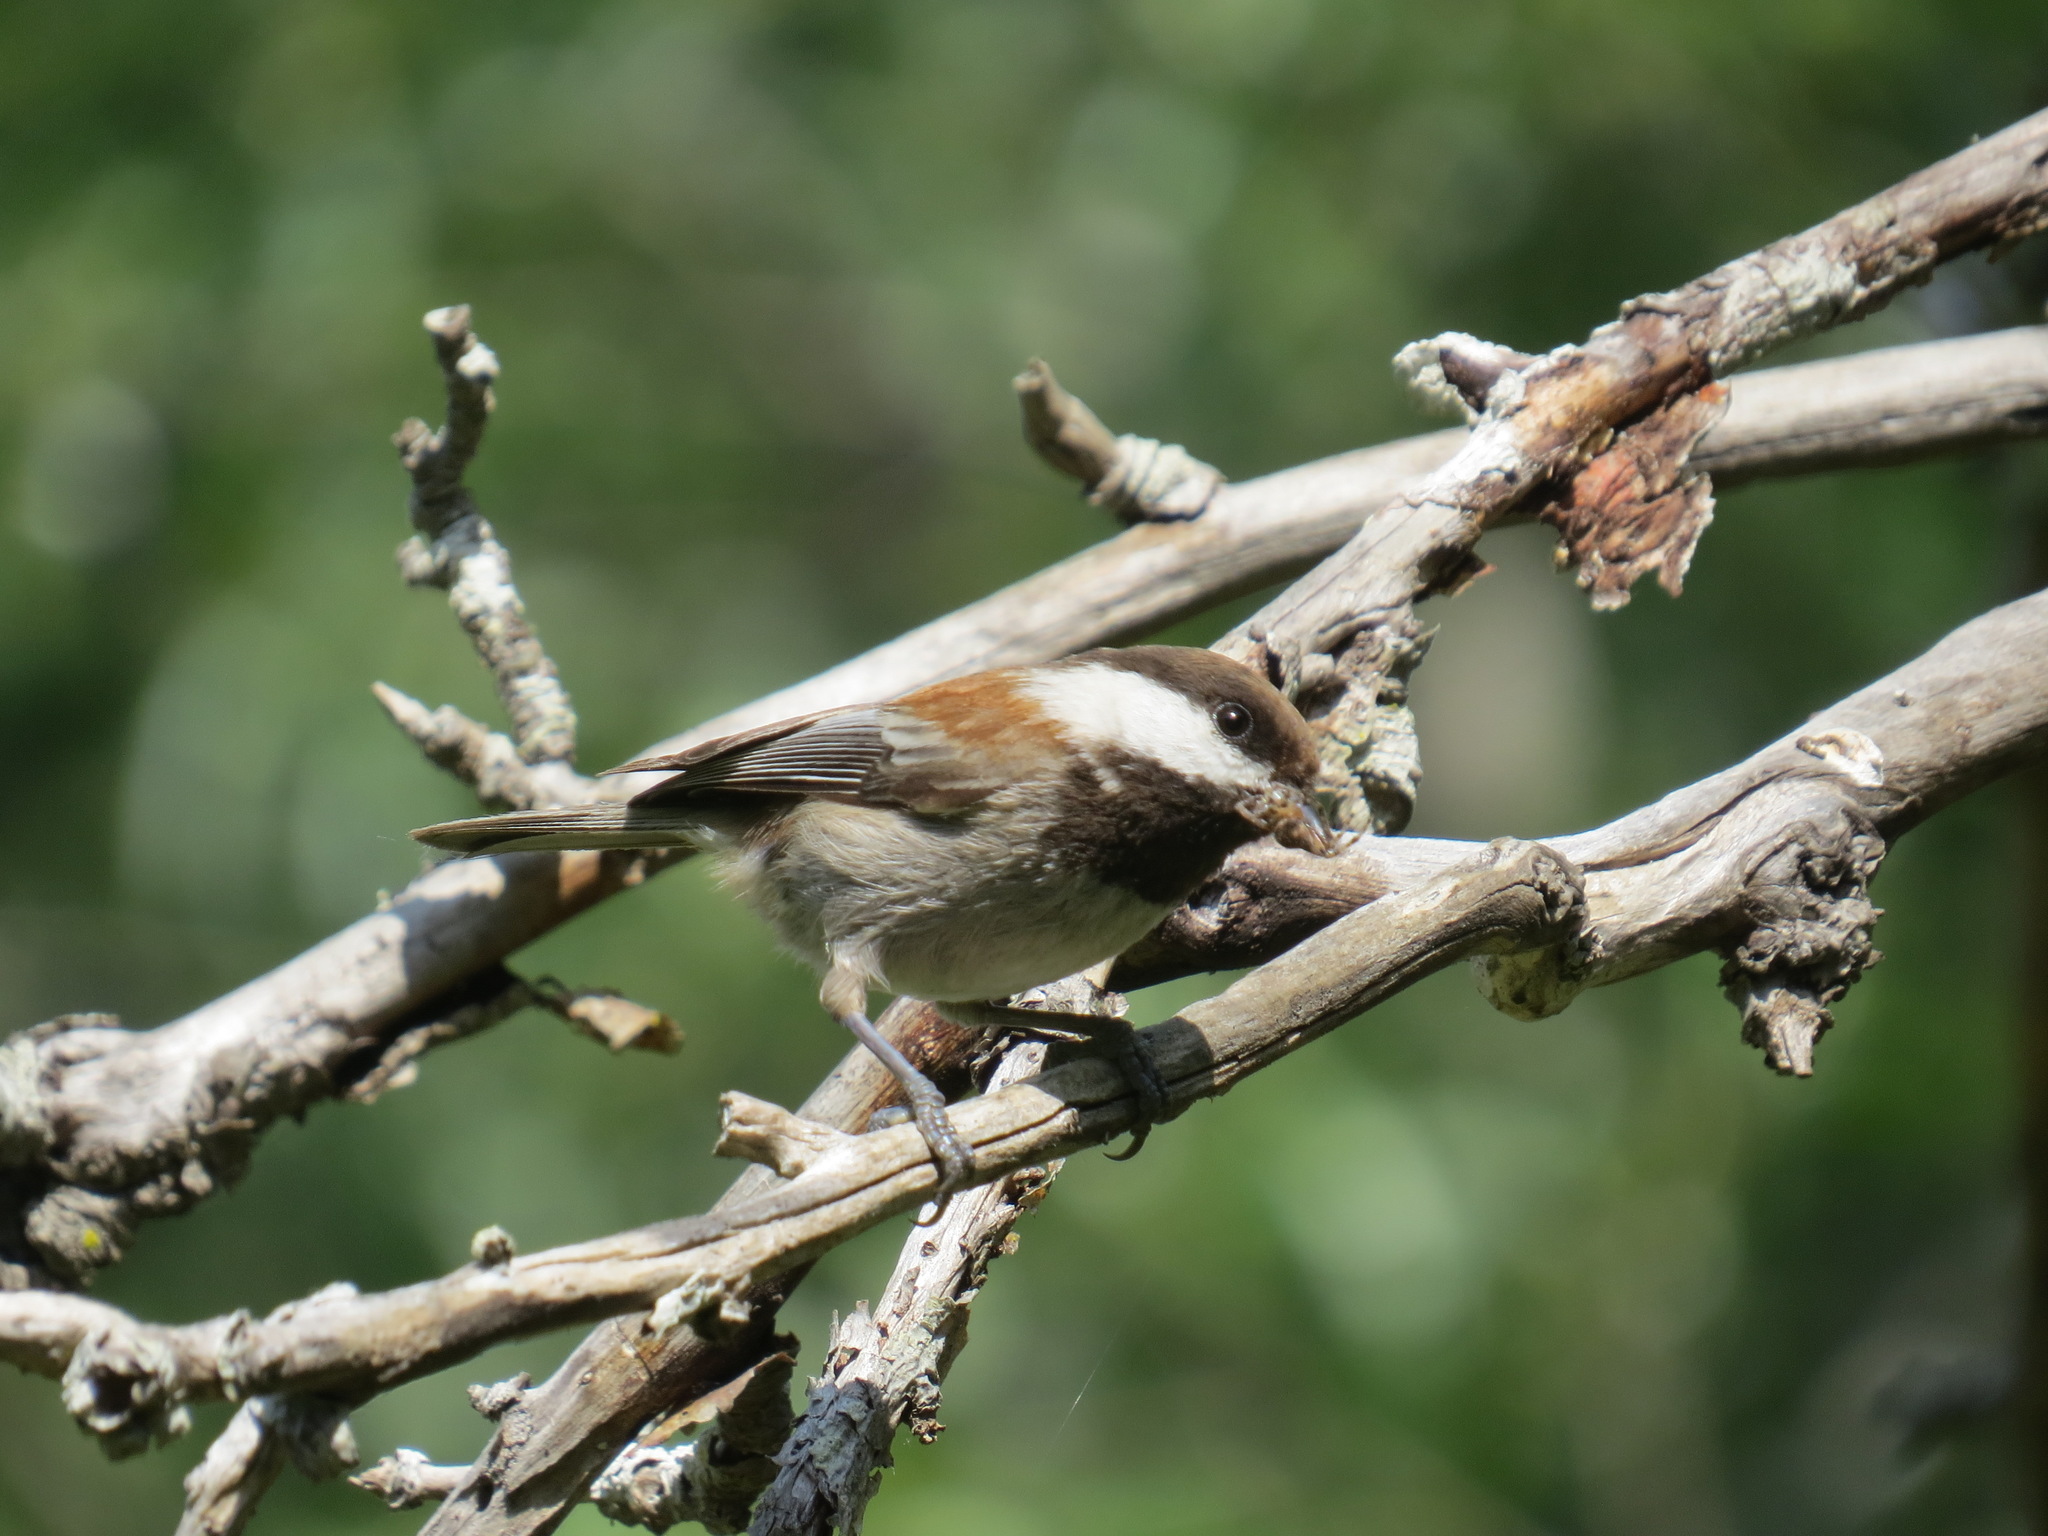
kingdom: Animalia
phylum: Chordata
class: Aves
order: Passeriformes
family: Paridae
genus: Poecile
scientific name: Poecile rufescens
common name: Chestnut-backed chickadee
